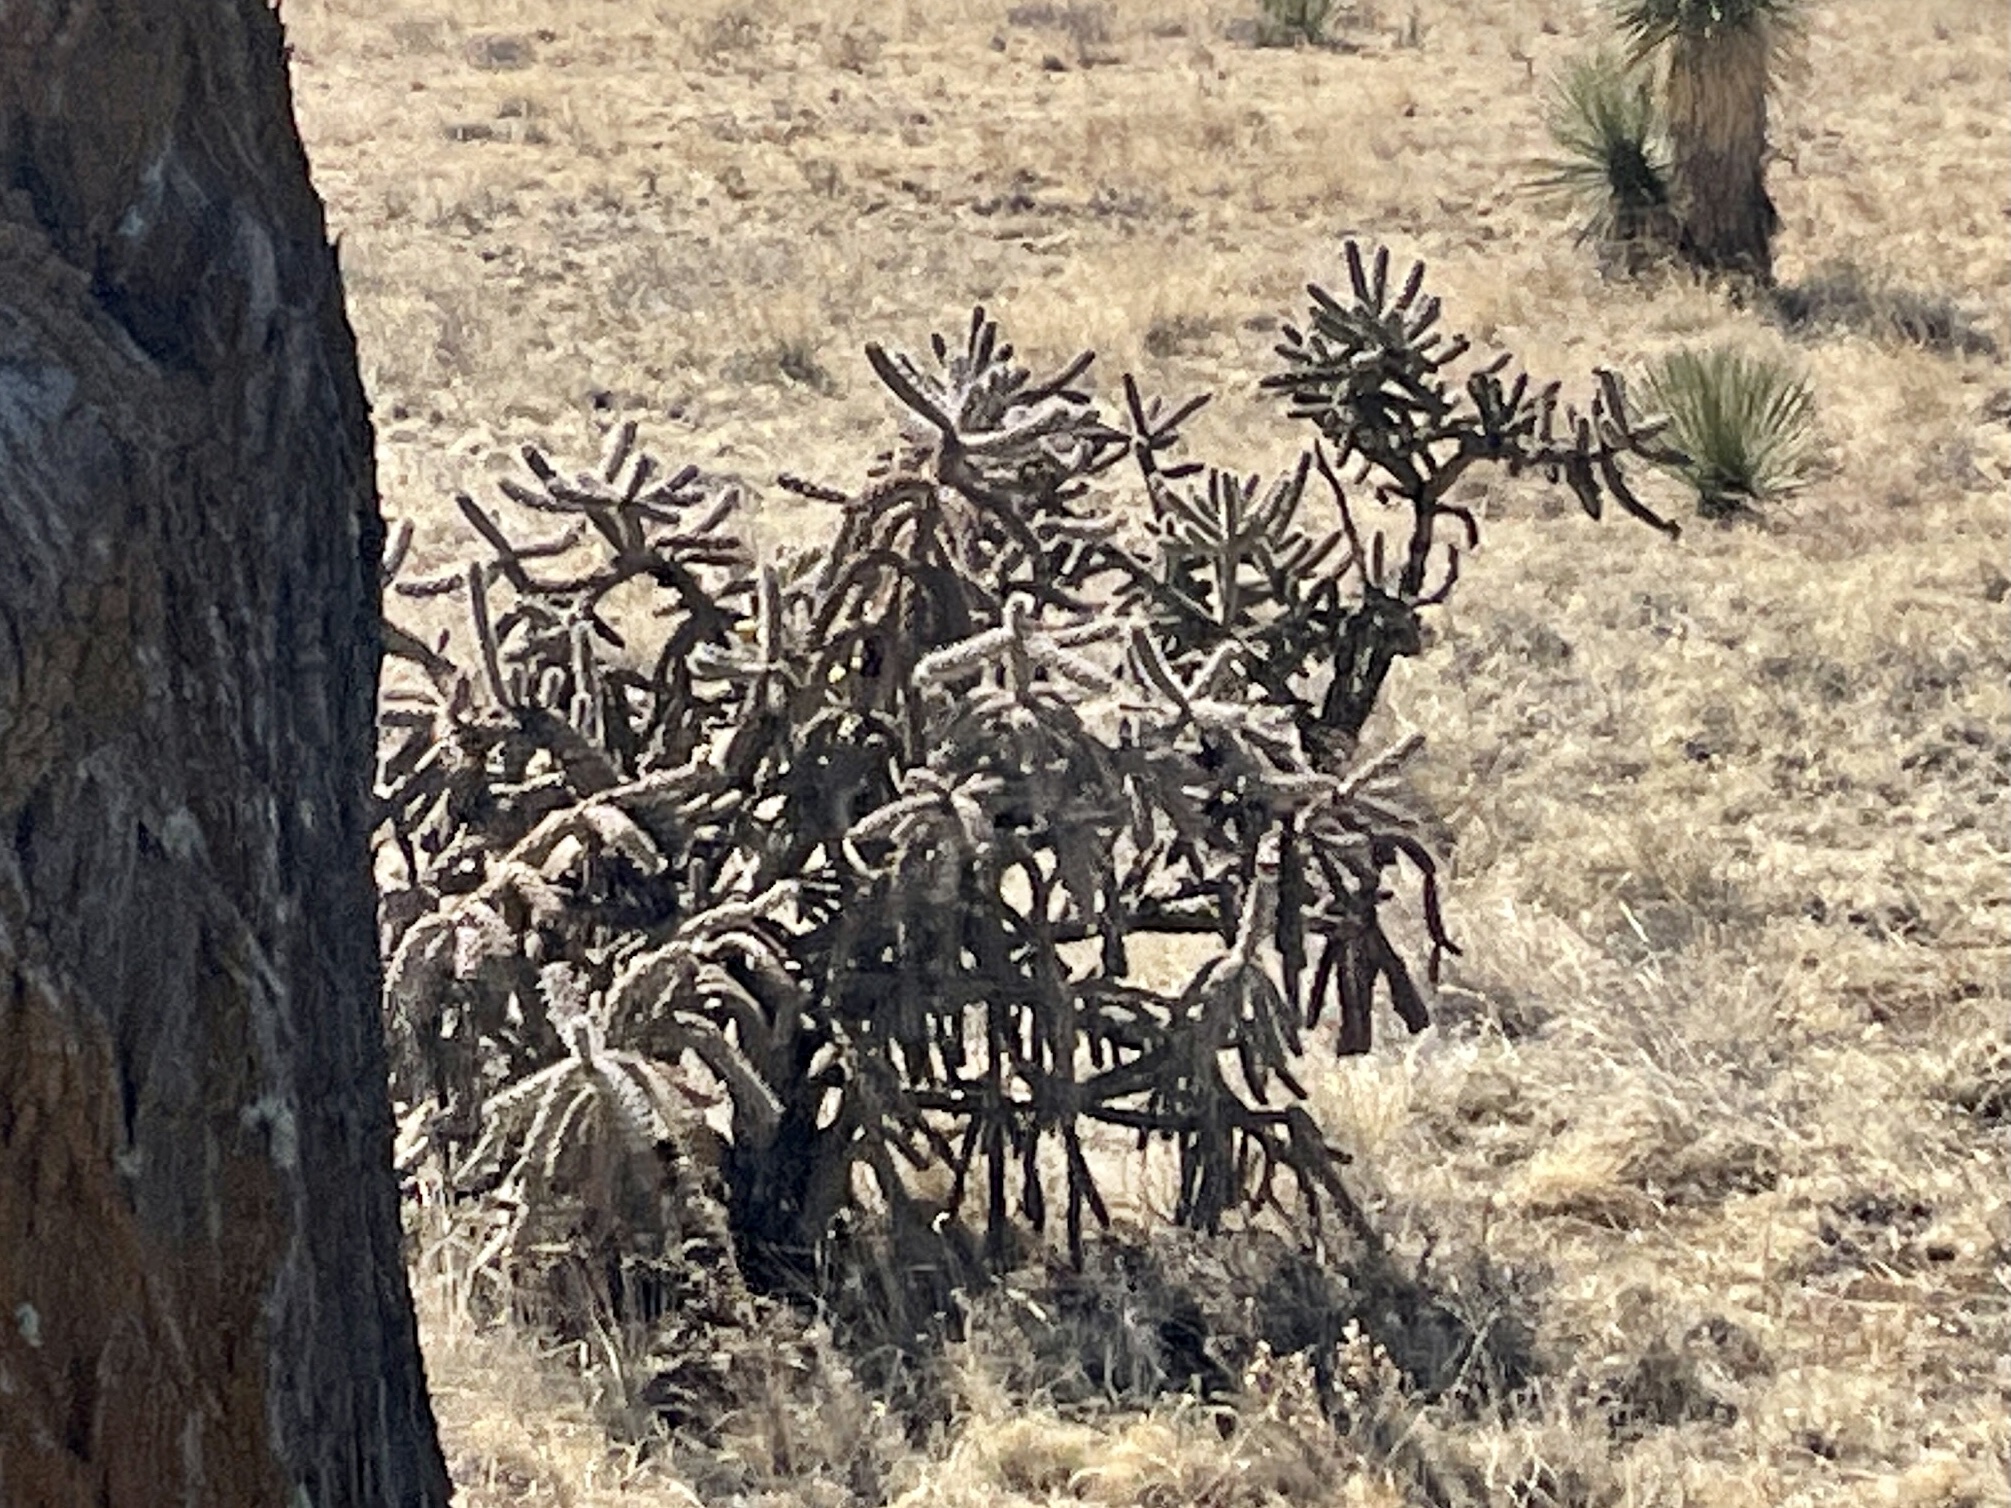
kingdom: Plantae
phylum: Tracheophyta
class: Magnoliopsida
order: Caryophyllales
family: Cactaceae
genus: Cylindropuntia
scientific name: Cylindropuntia imbricata
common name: Candelabrum cactus
